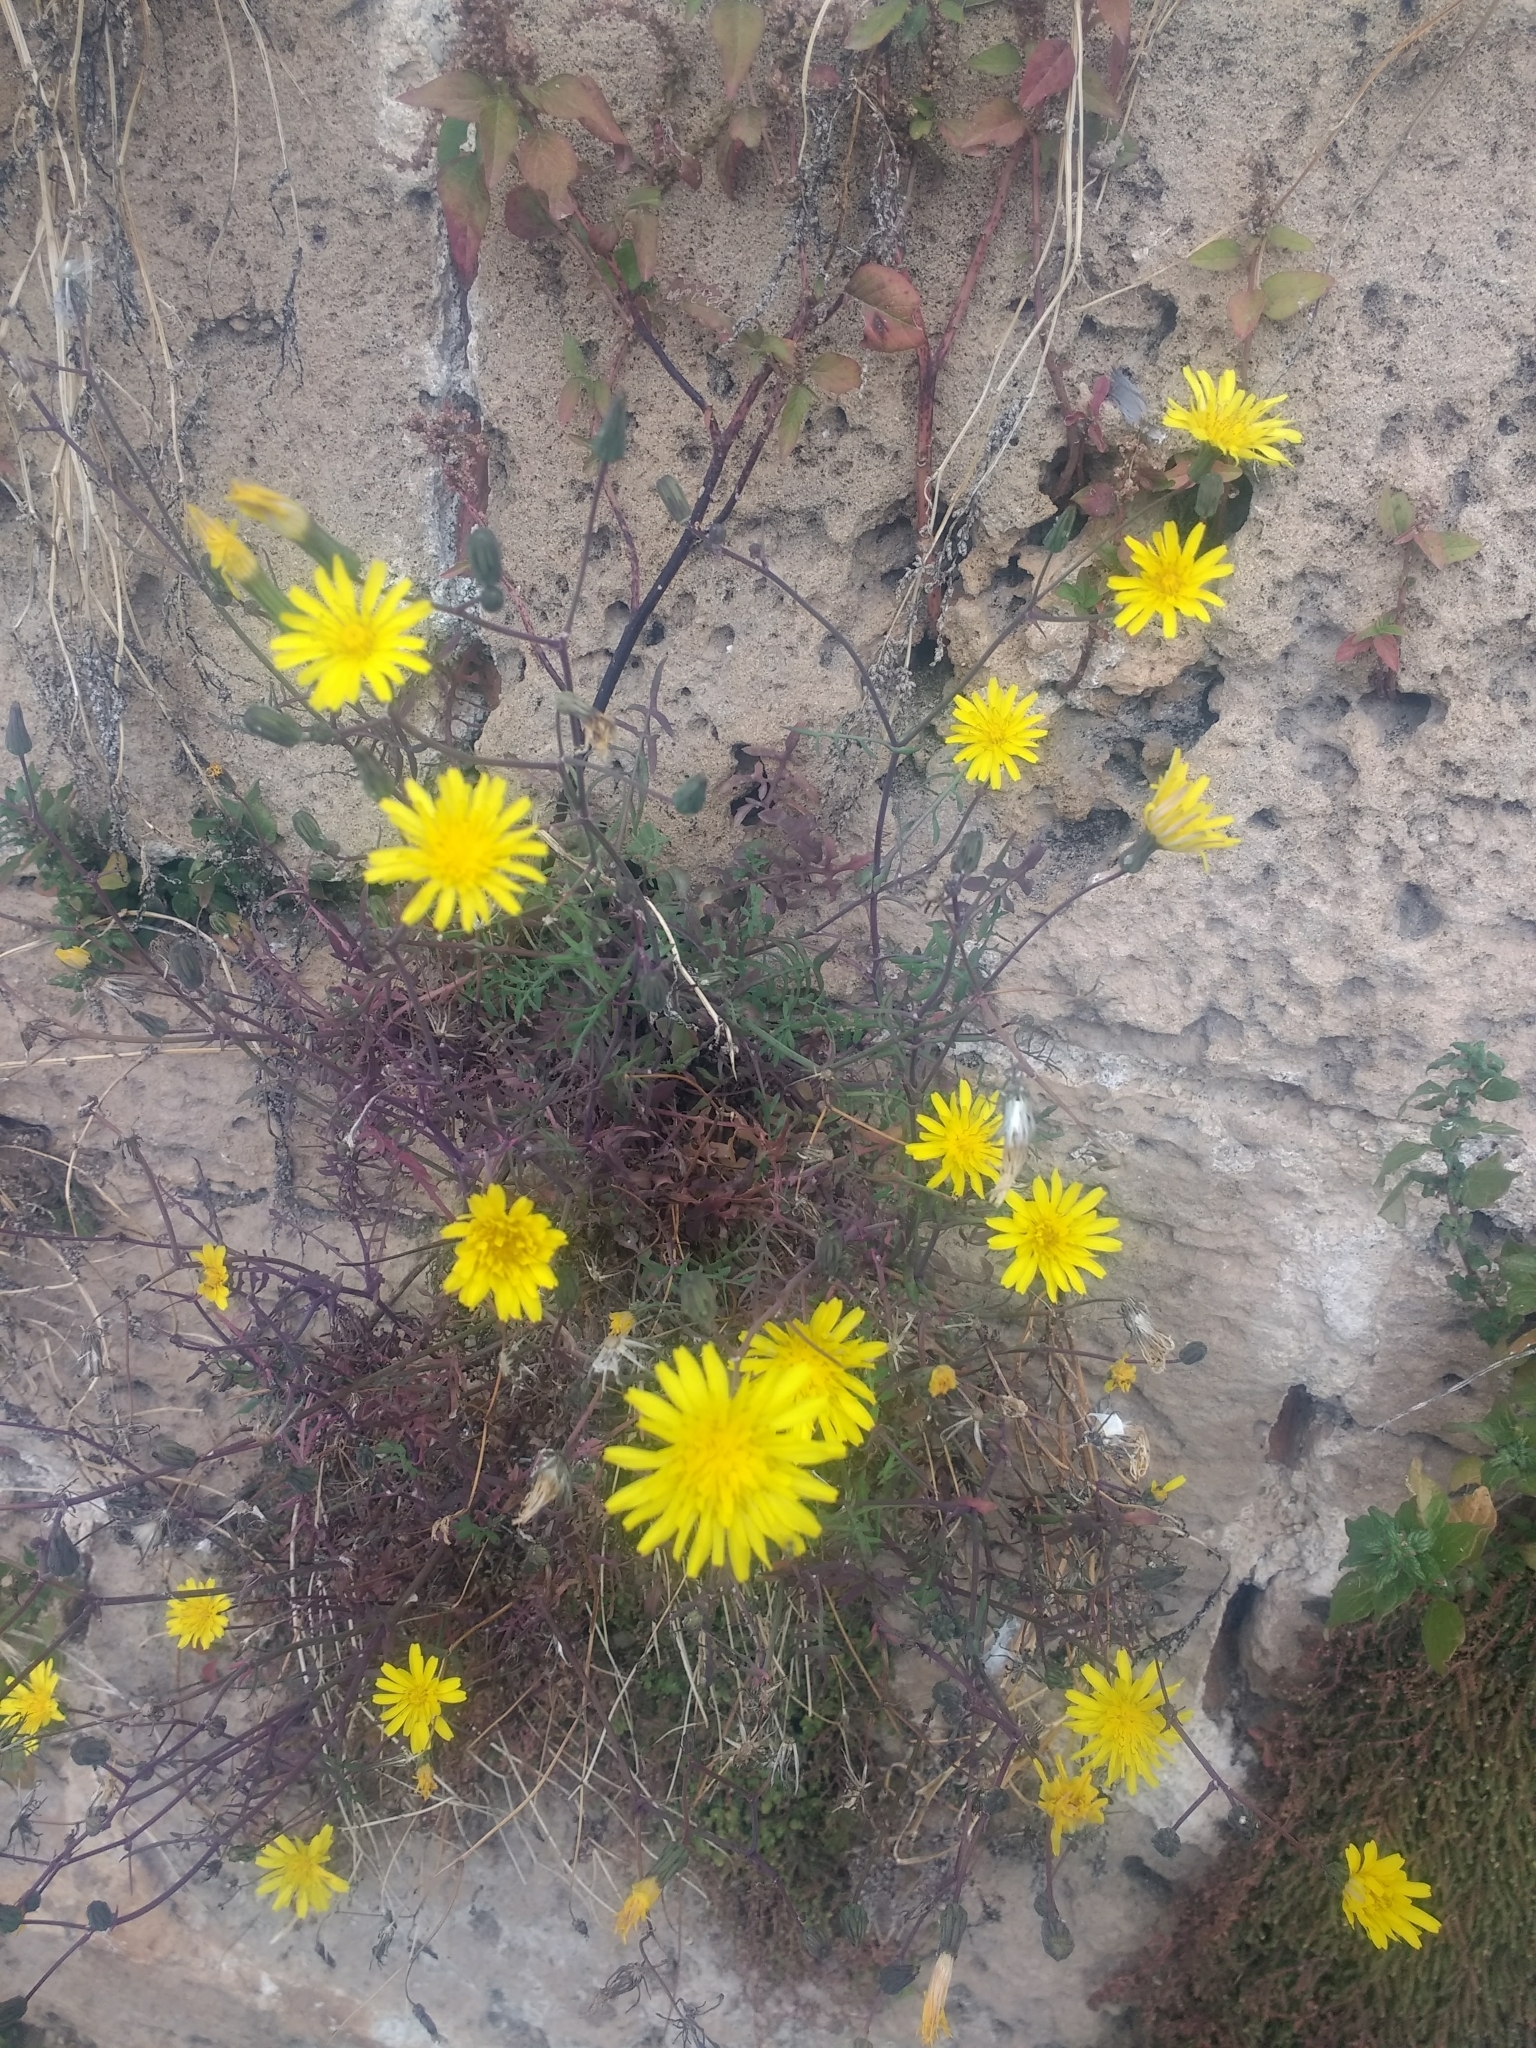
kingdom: Plantae
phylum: Tracheophyta
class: Magnoliopsida
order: Asterales
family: Asteraceae
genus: Sonchus
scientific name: Sonchus tenerrimus
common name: Clammy sowthistle
